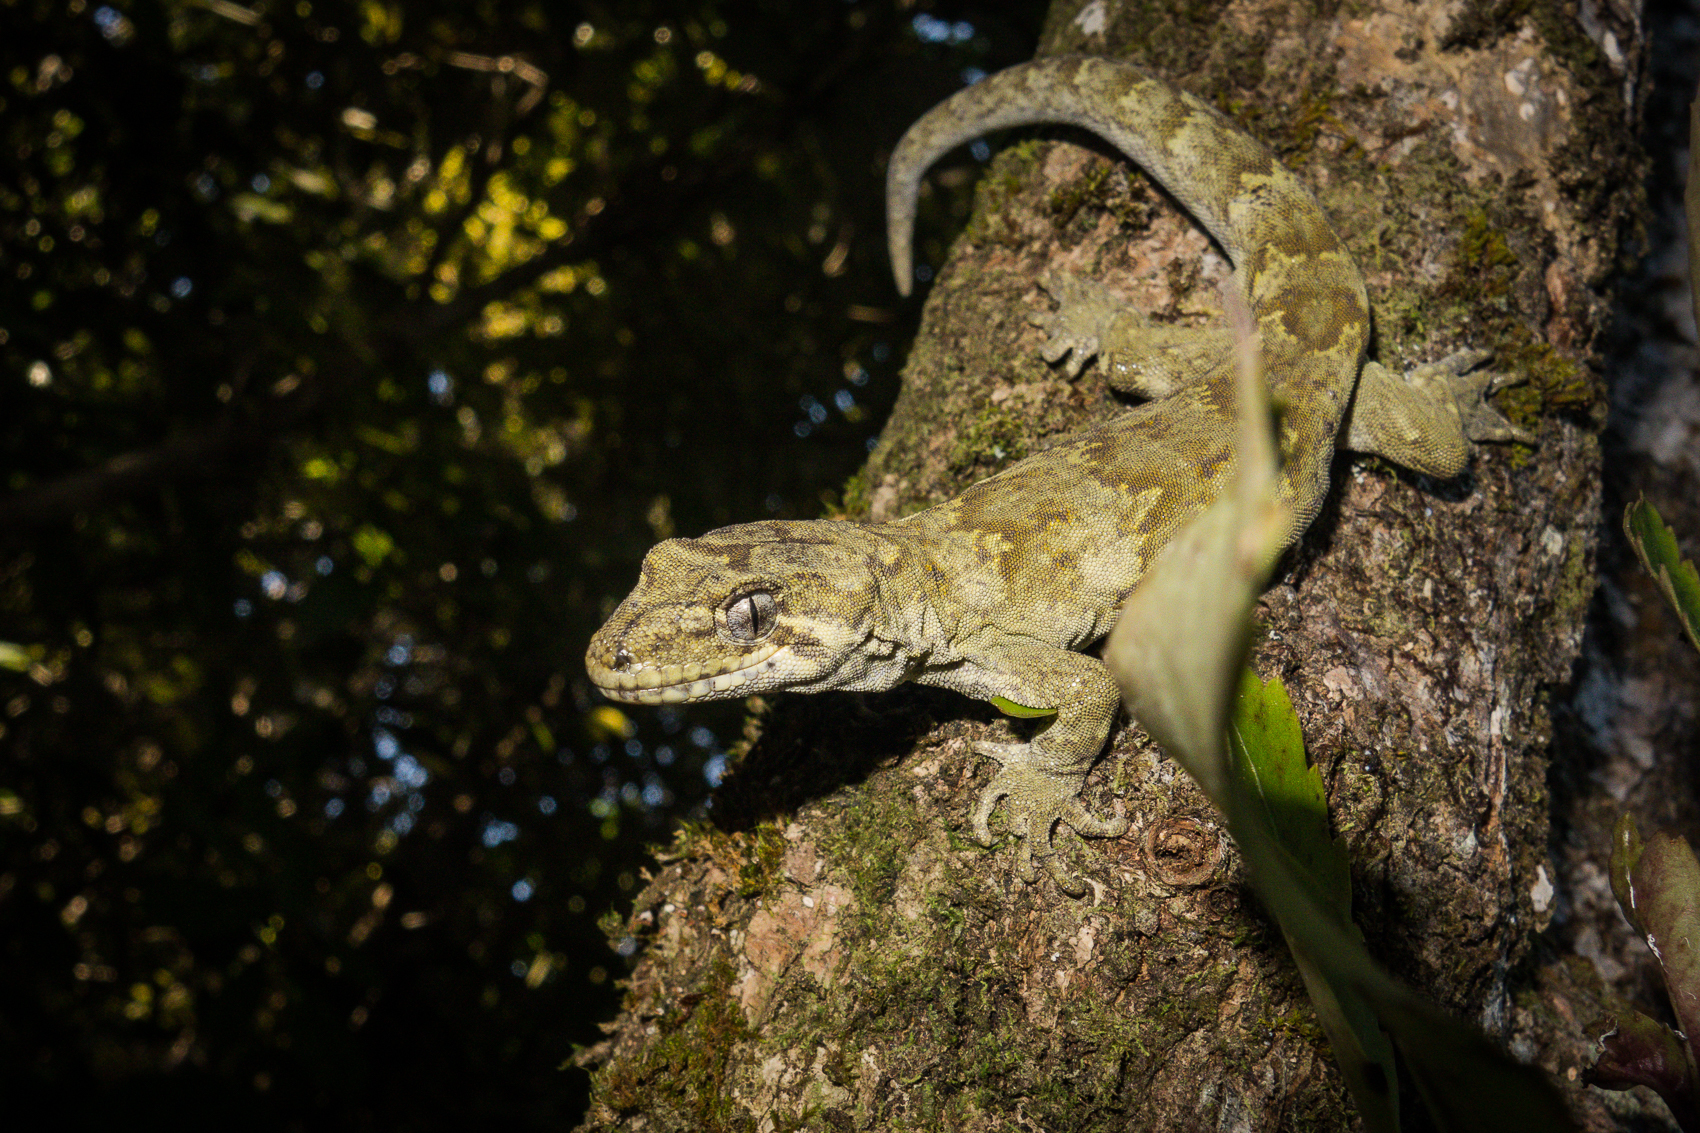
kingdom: Animalia
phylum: Chordata
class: Squamata
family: Diplodactylidae
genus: Mokopirirakau
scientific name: Mokopirirakau
